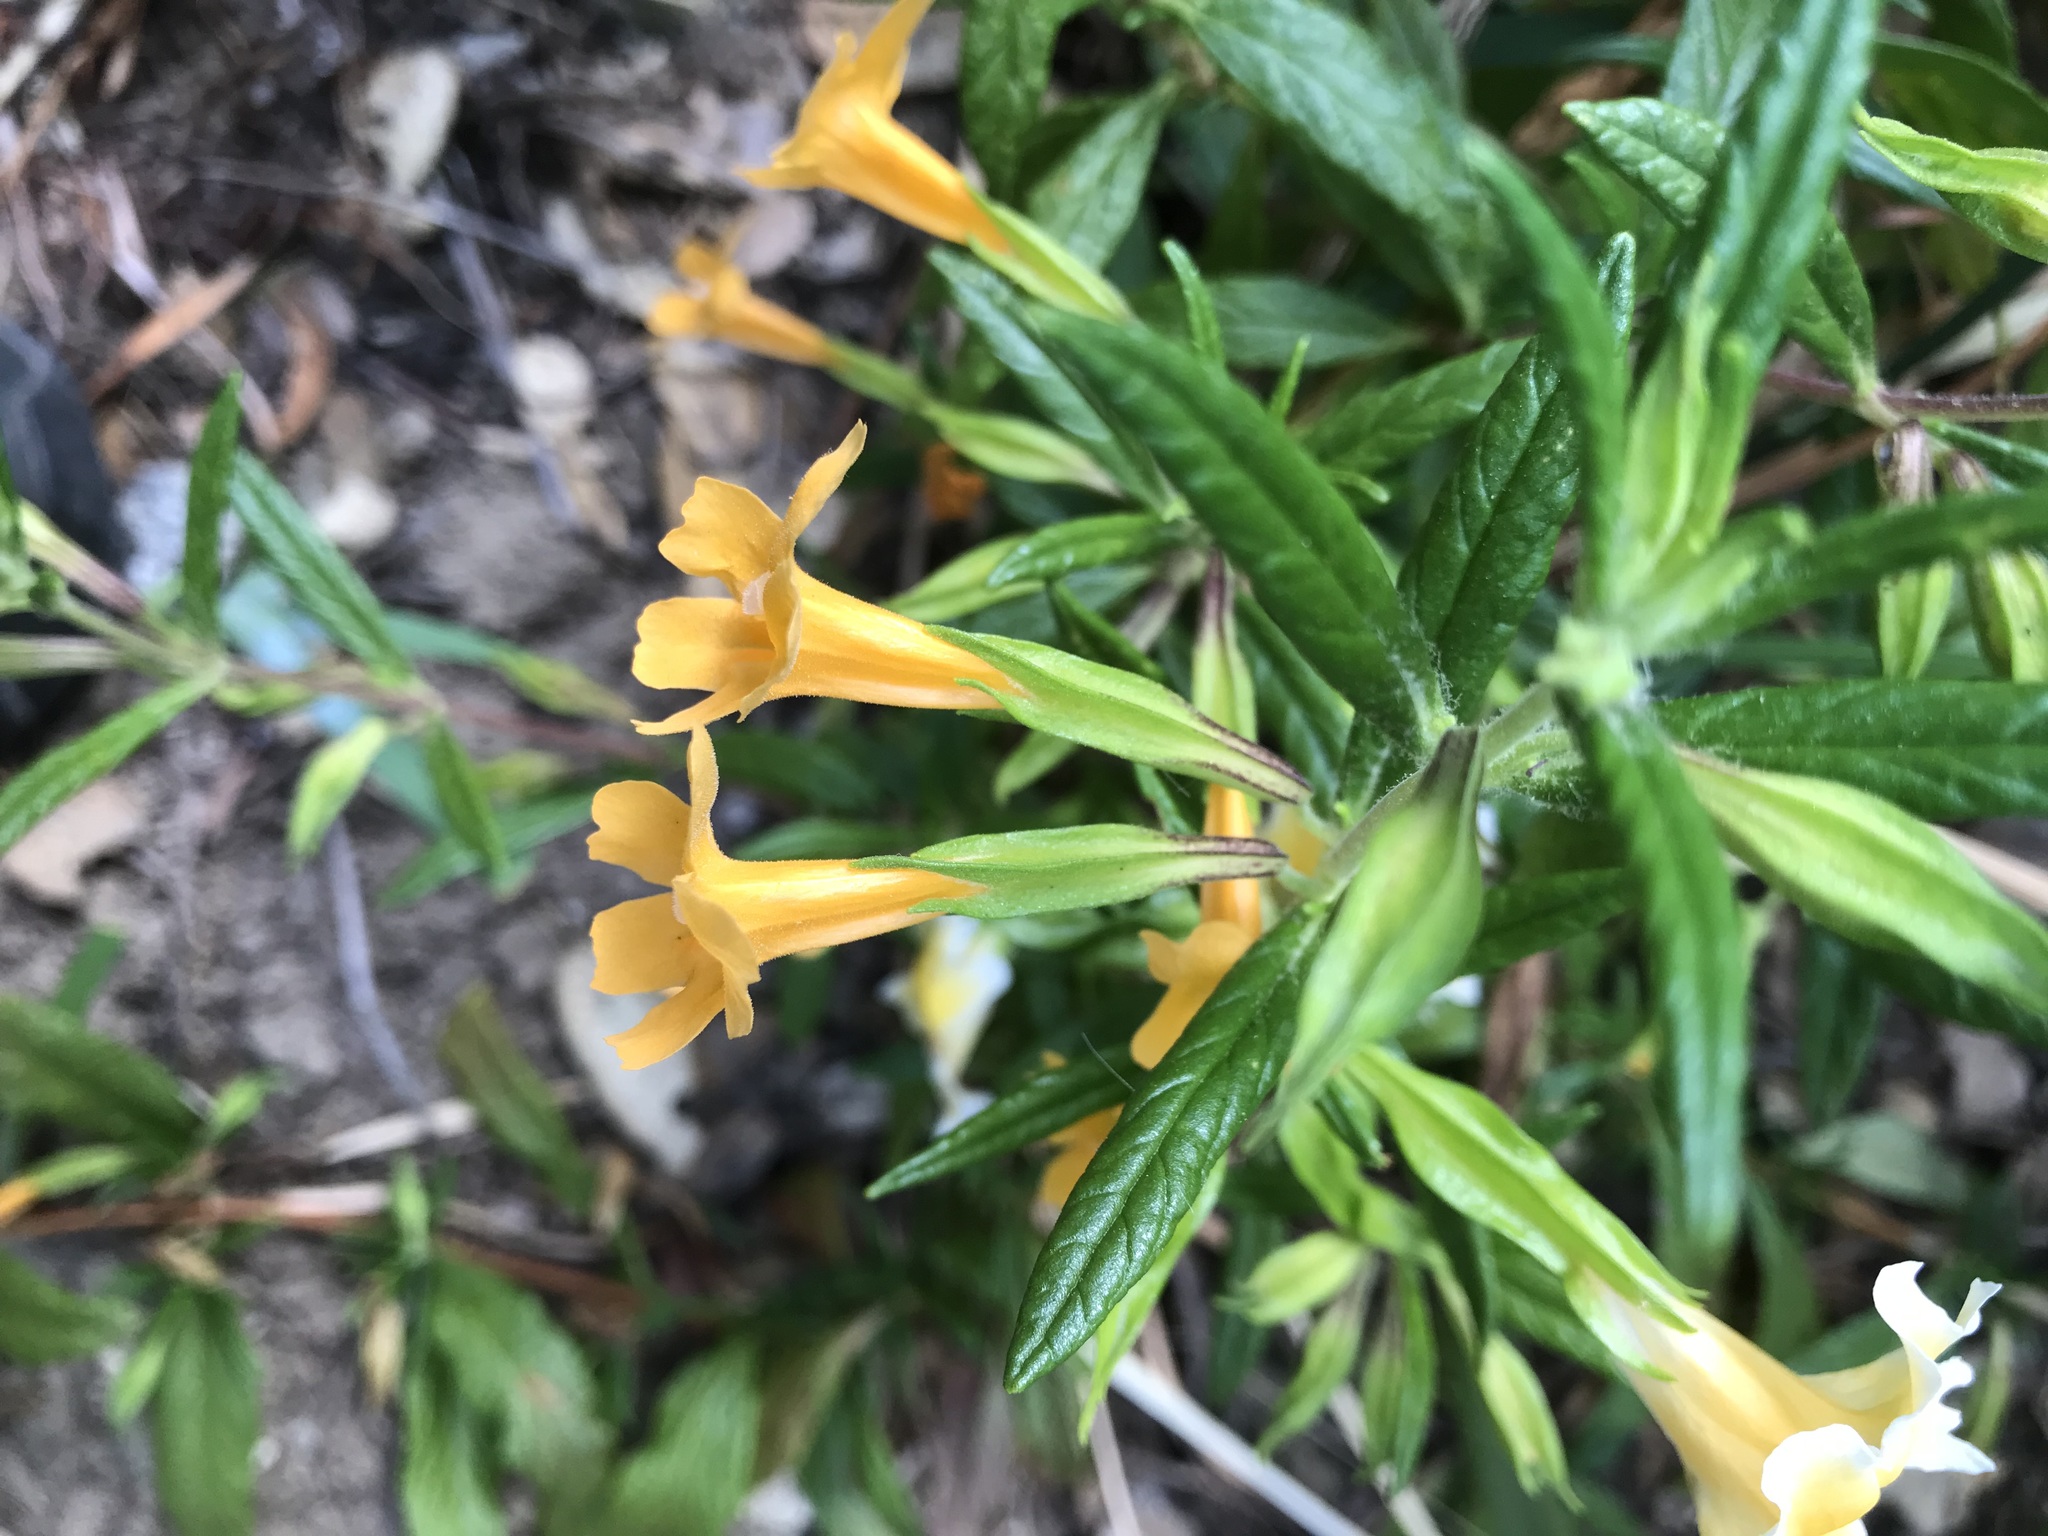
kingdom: Plantae
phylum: Tracheophyta
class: Magnoliopsida
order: Lamiales
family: Phrymaceae
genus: Diplacus
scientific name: Diplacus aurantiacus
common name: Bush monkey-flower
